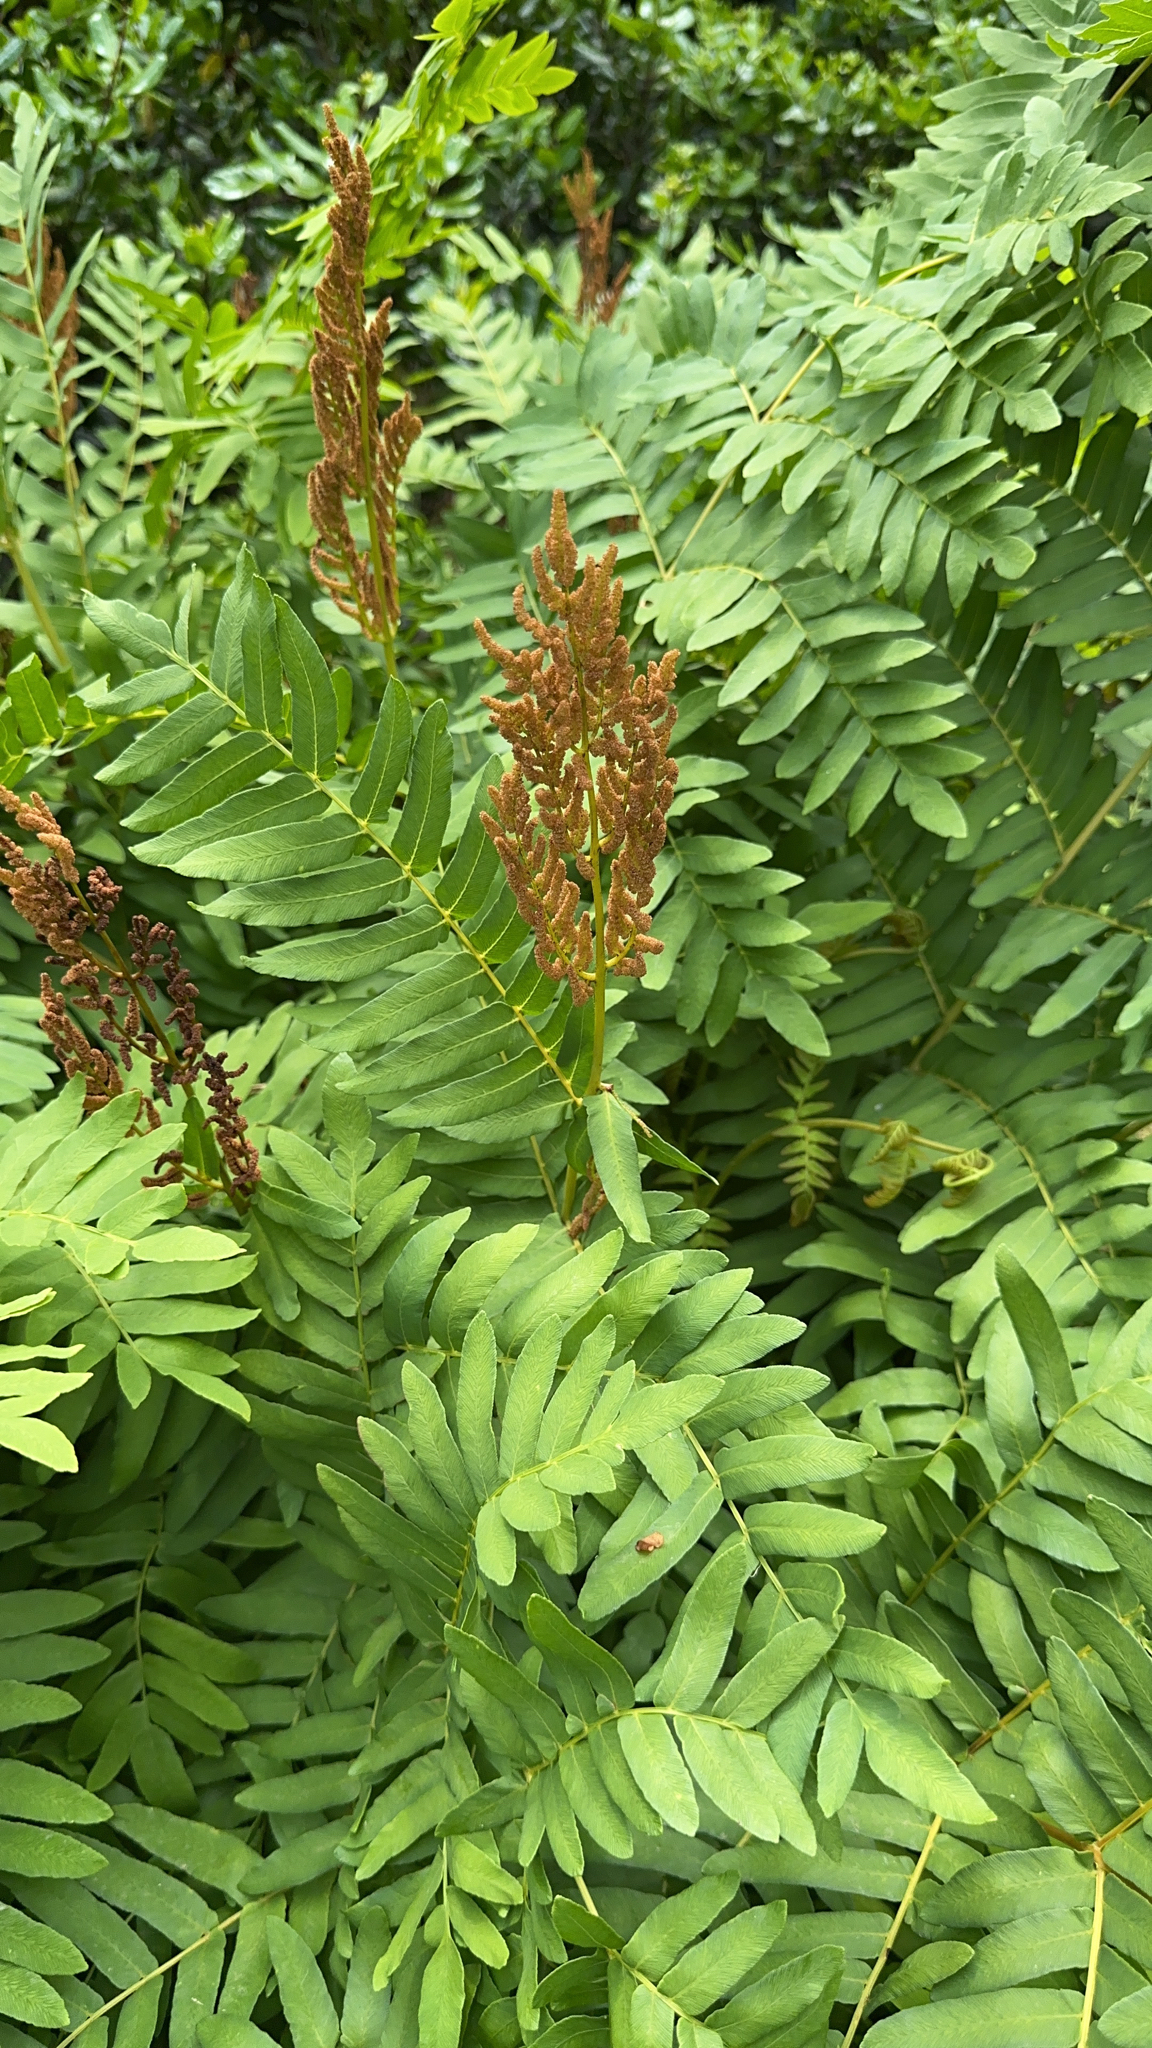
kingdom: Plantae
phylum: Tracheophyta
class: Polypodiopsida
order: Osmundales
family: Osmundaceae
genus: Osmunda
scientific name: Osmunda regalis
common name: Royal fern
